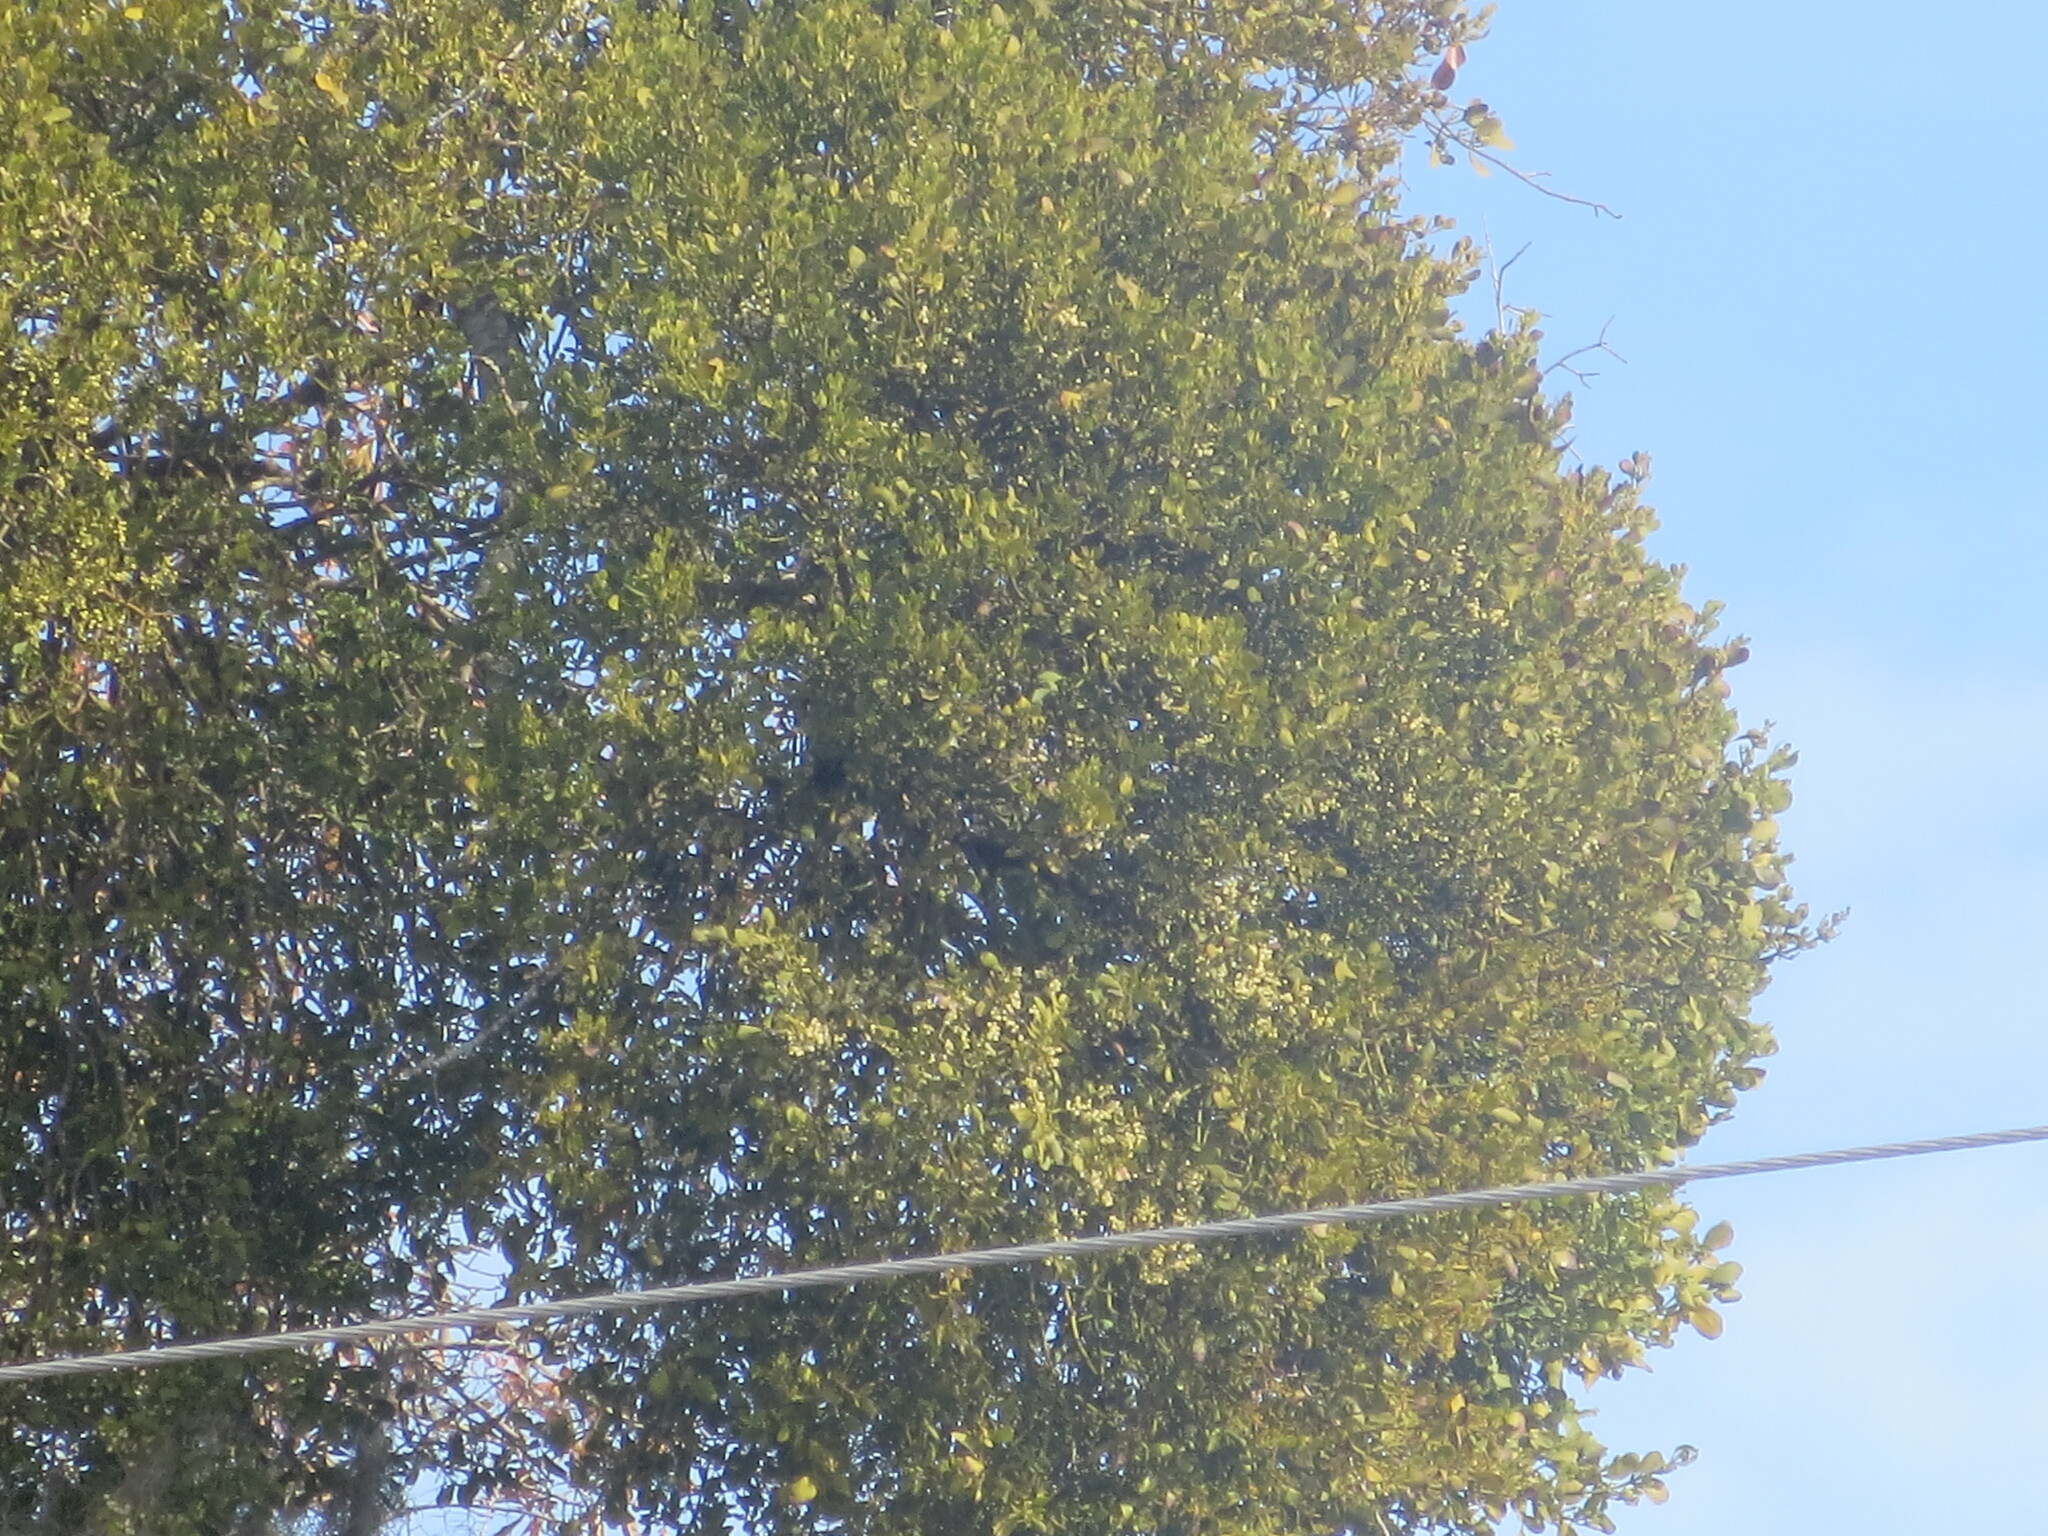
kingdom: Plantae
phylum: Tracheophyta
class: Magnoliopsida
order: Santalales
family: Viscaceae
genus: Phoradendron
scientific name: Phoradendron leucarpum
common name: Pacific mistletoe
